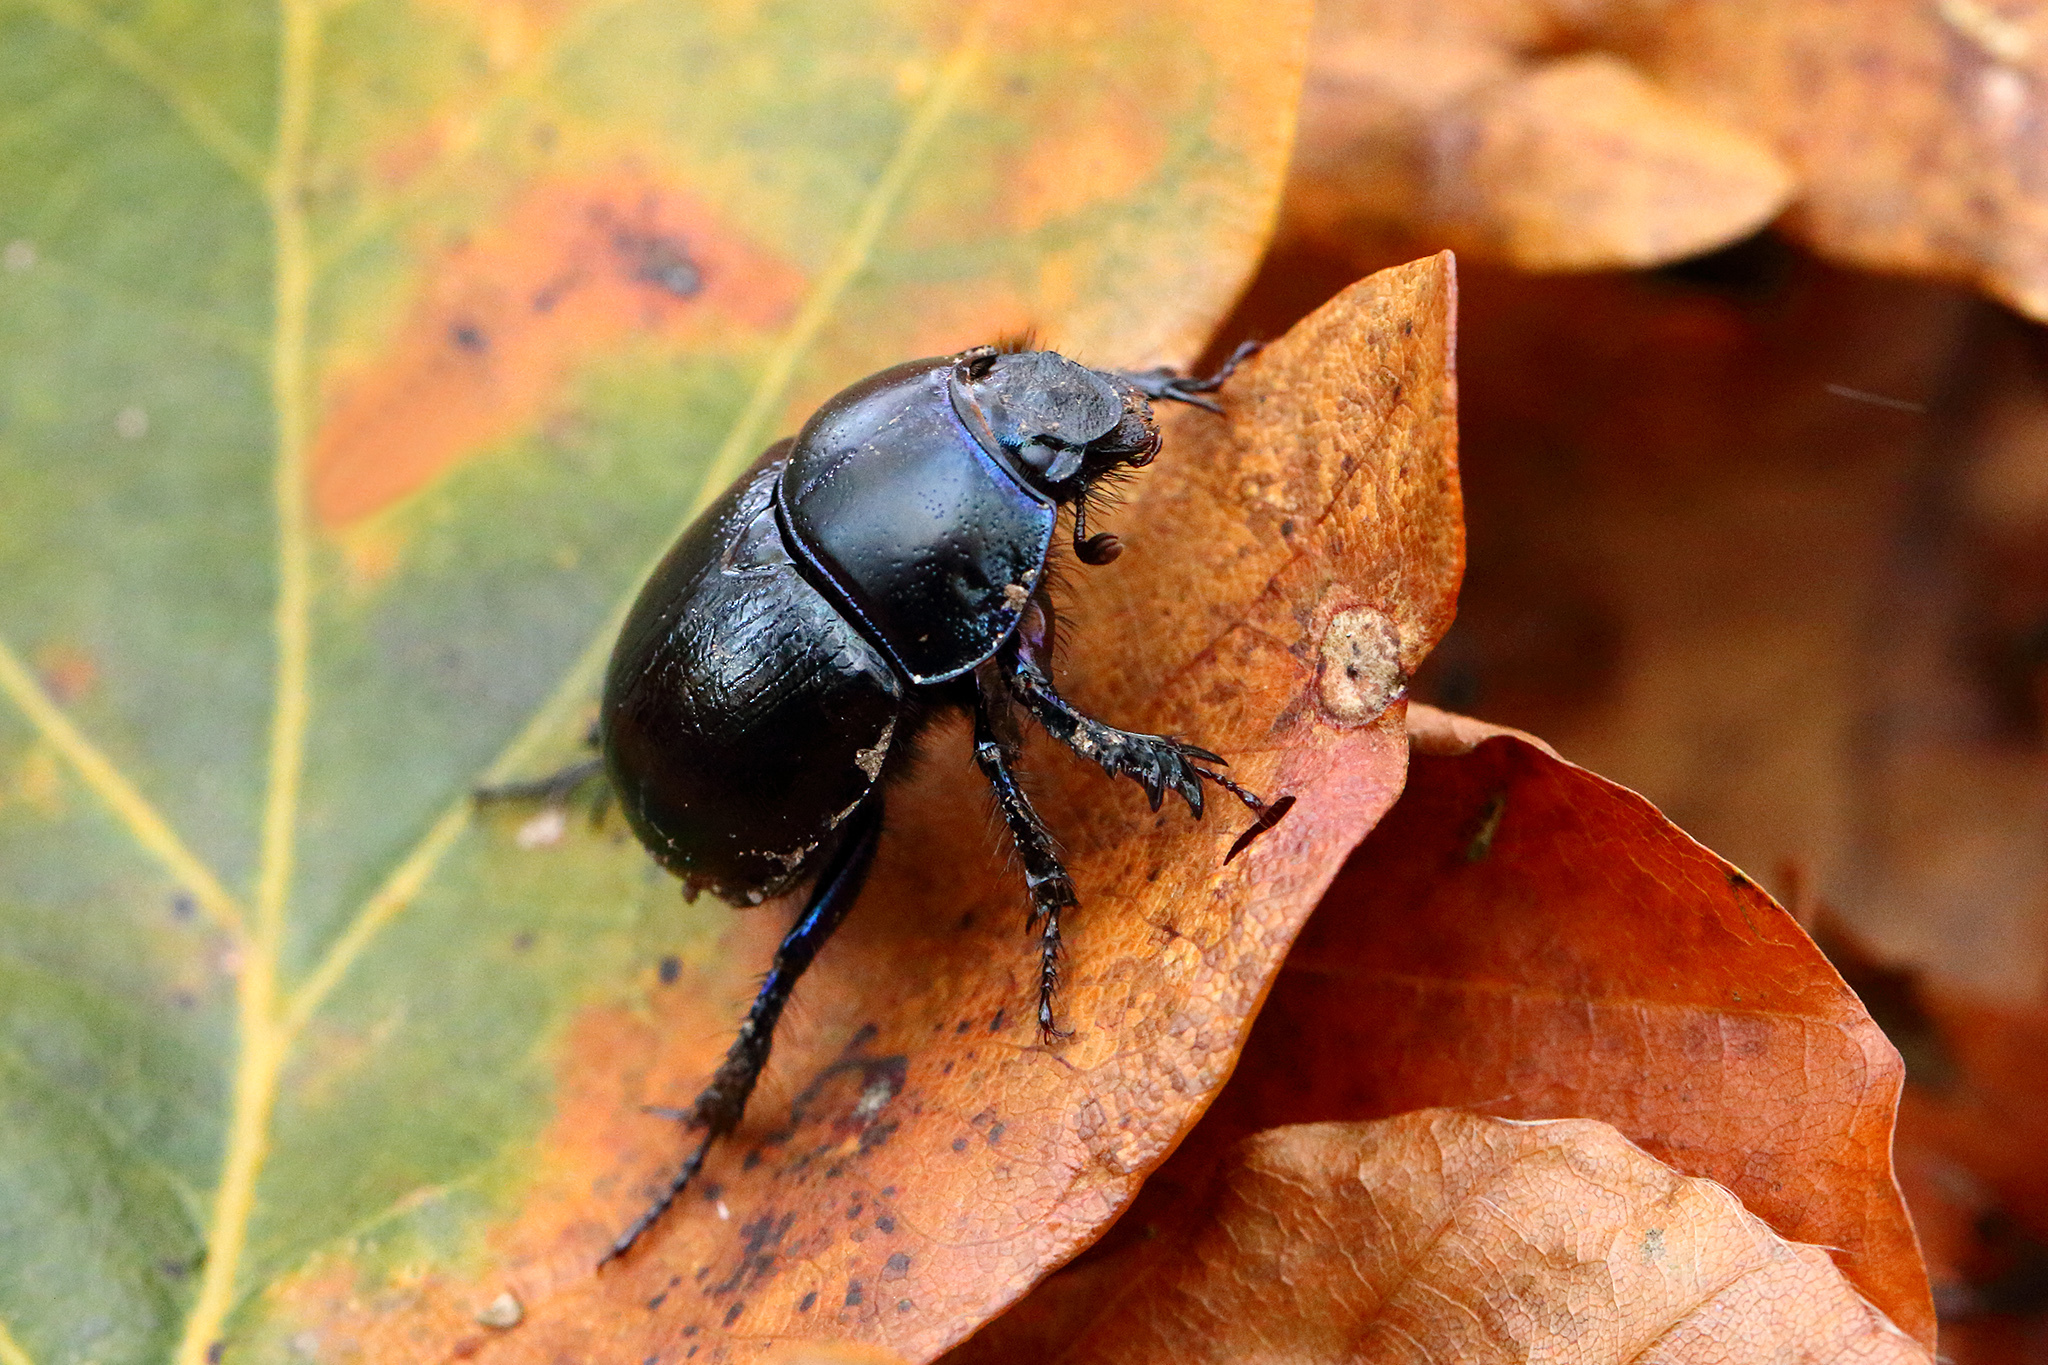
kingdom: Animalia
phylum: Arthropoda
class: Insecta
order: Coleoptera
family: Geotrupidae
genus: Anoplotrupes
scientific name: Anoplotrupes stercorosus
